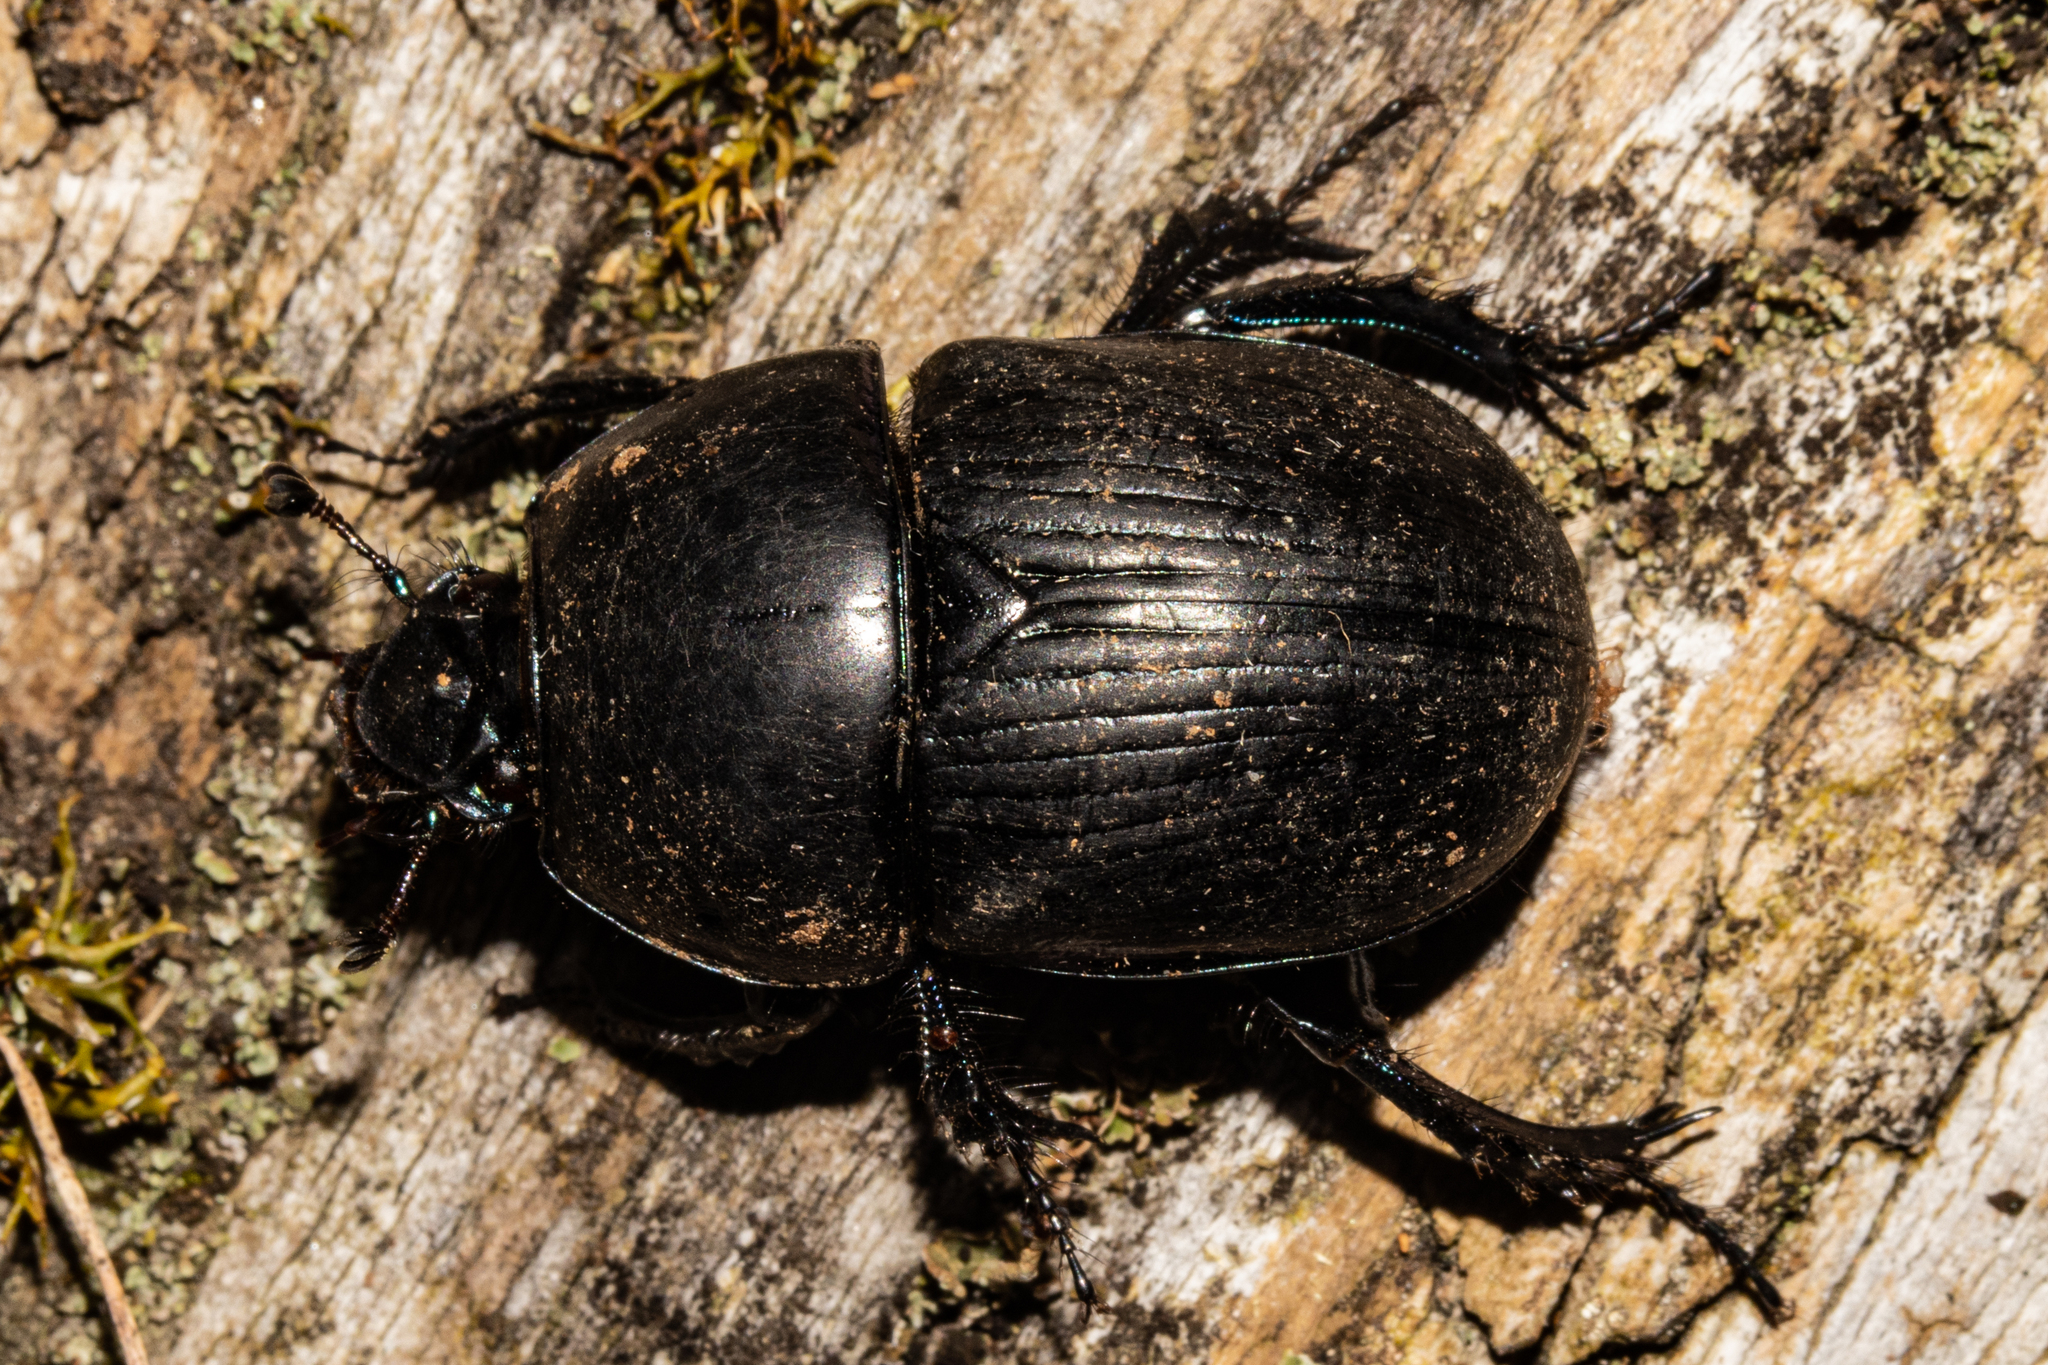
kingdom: Animalia
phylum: Arthropoda
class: Insecta
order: Coleoptera
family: Geotrupidae
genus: Geotrupes
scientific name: Geotrupes spiniger
